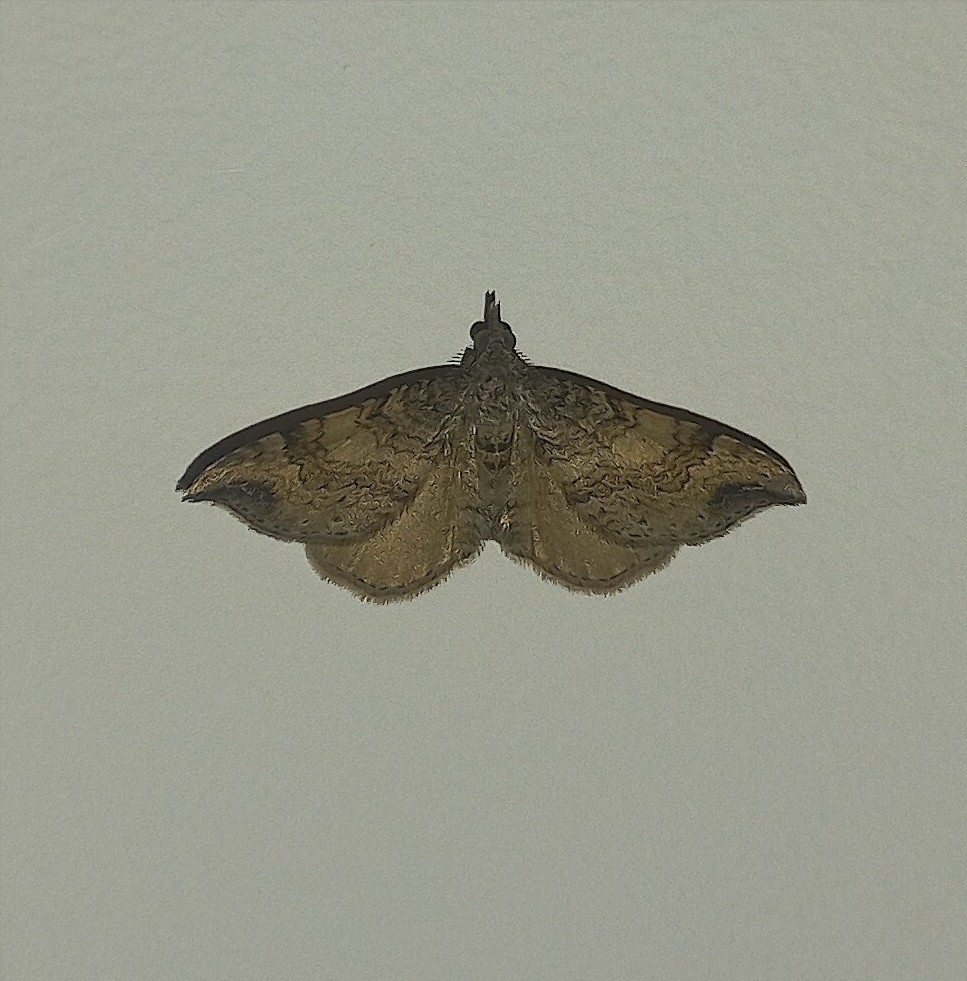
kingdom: Animalia
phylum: Arthropoda
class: Insecta
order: Lepidoptera
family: Geometridae
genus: Homodotis
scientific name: Homodotis megaspilata
